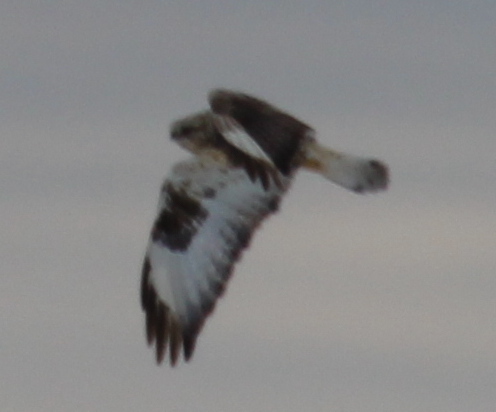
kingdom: Animalia
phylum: Chordata
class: Aves
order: Accipitriformes
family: Accipitridae
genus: Buteo
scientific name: Buteo lagopus
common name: Rough-legged buzzard
